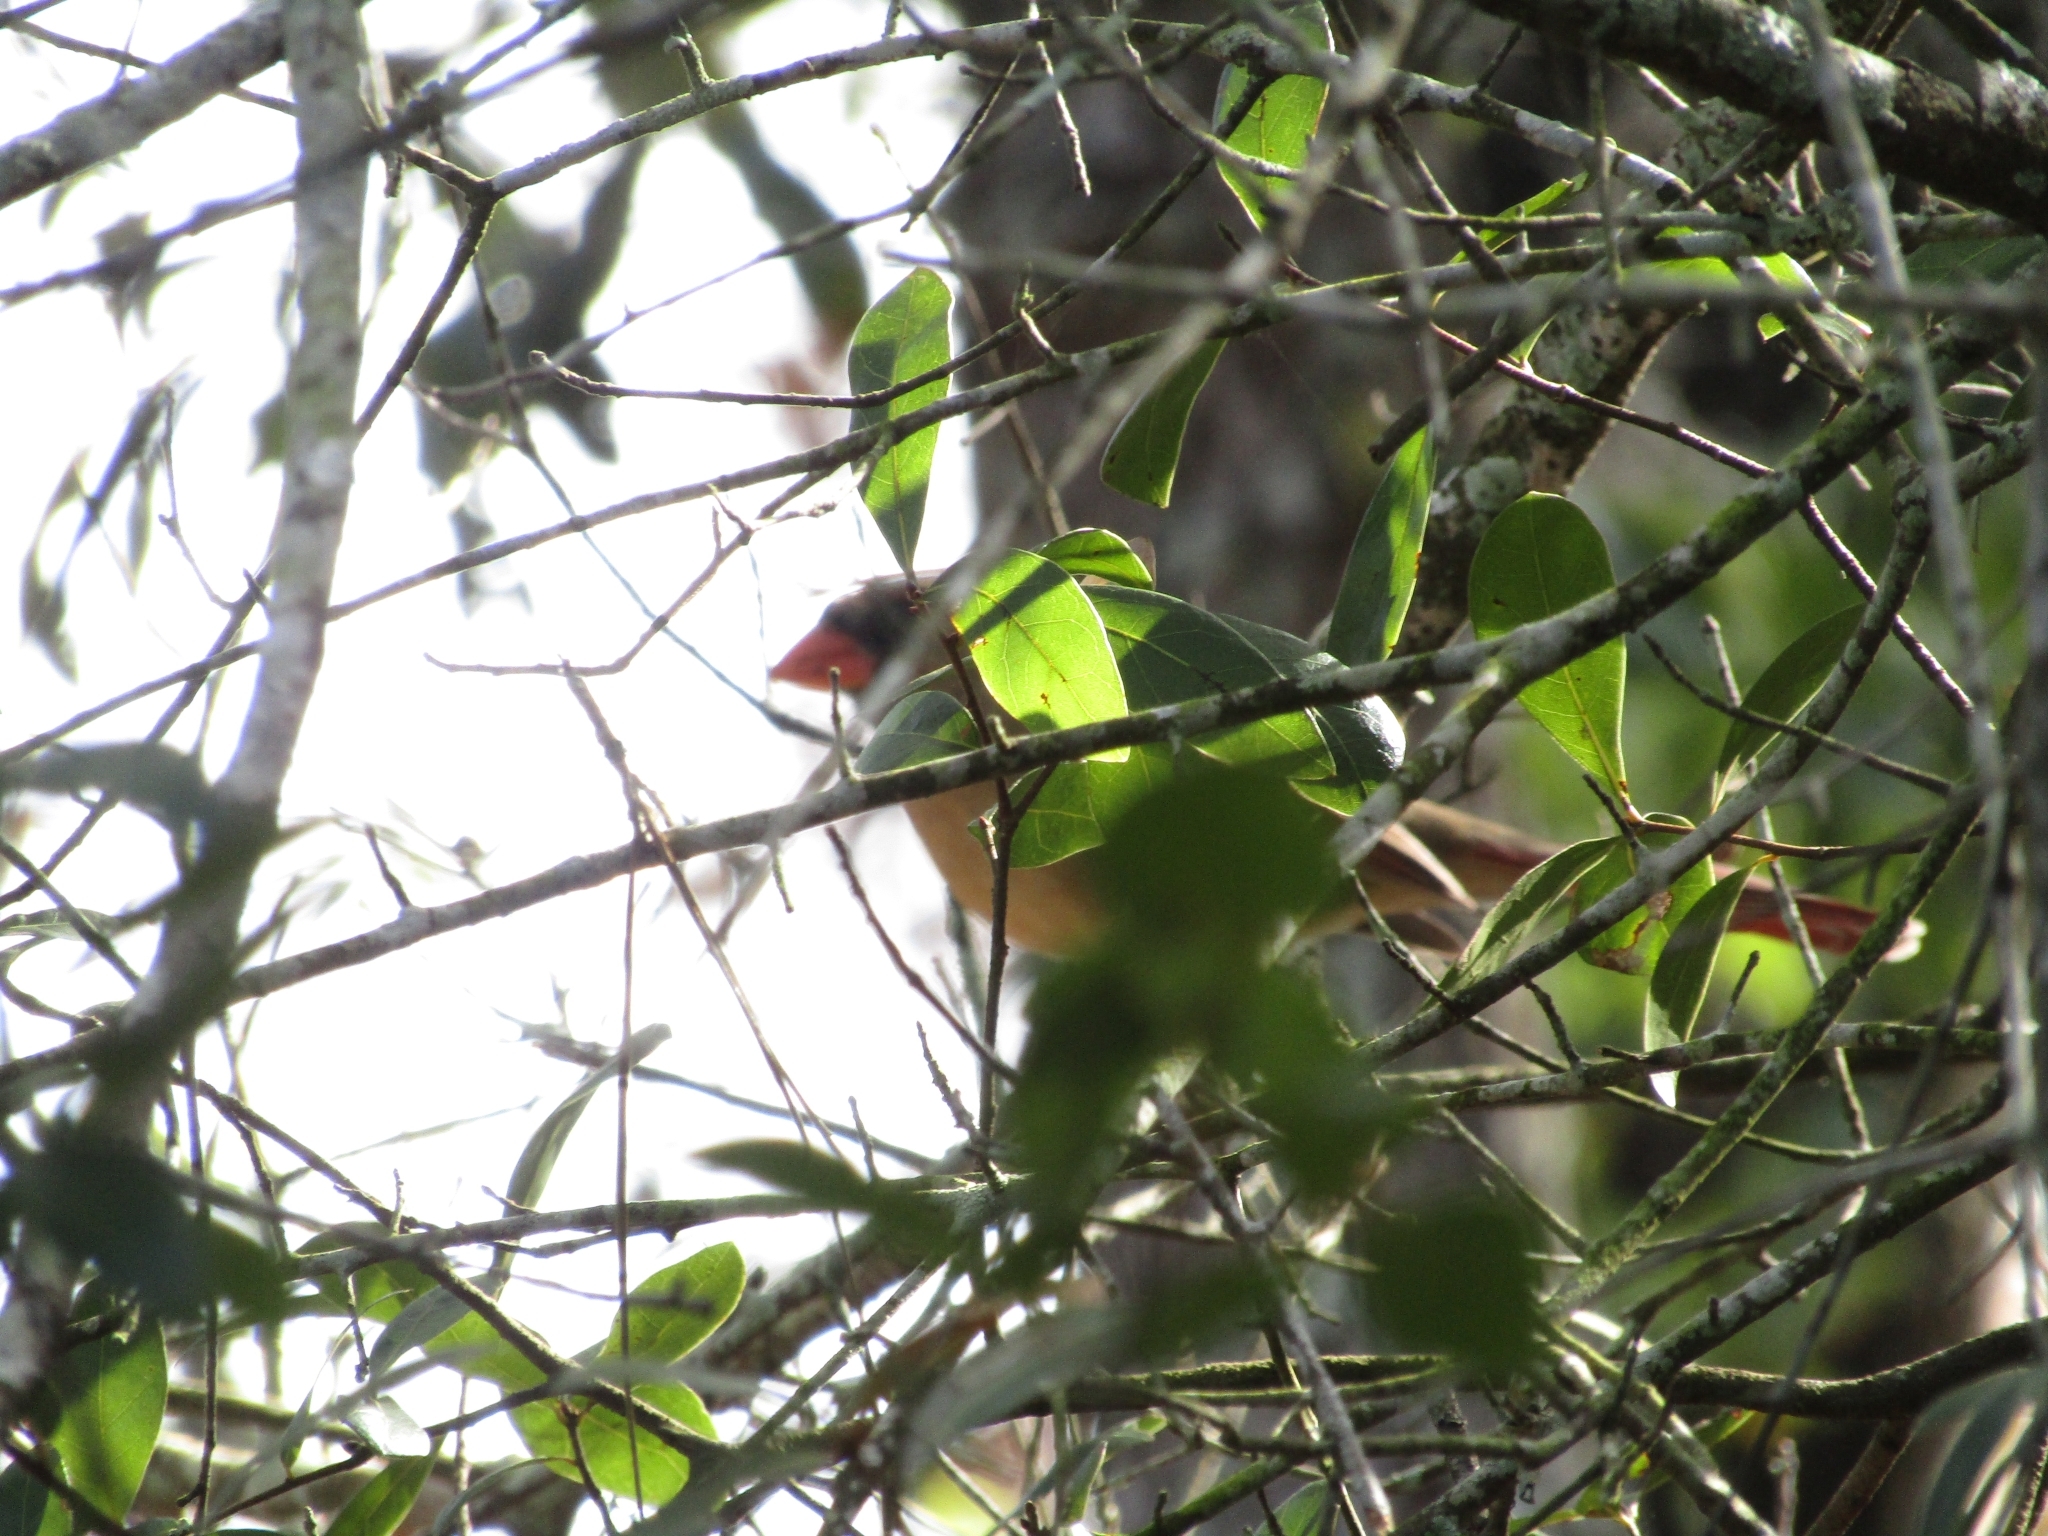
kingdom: Animalia
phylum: Chordata
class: Aves
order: Passeriformes
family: Cardinalidae
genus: Cardinalis
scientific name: Cardinalis cardinalis
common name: Northern cardinal
